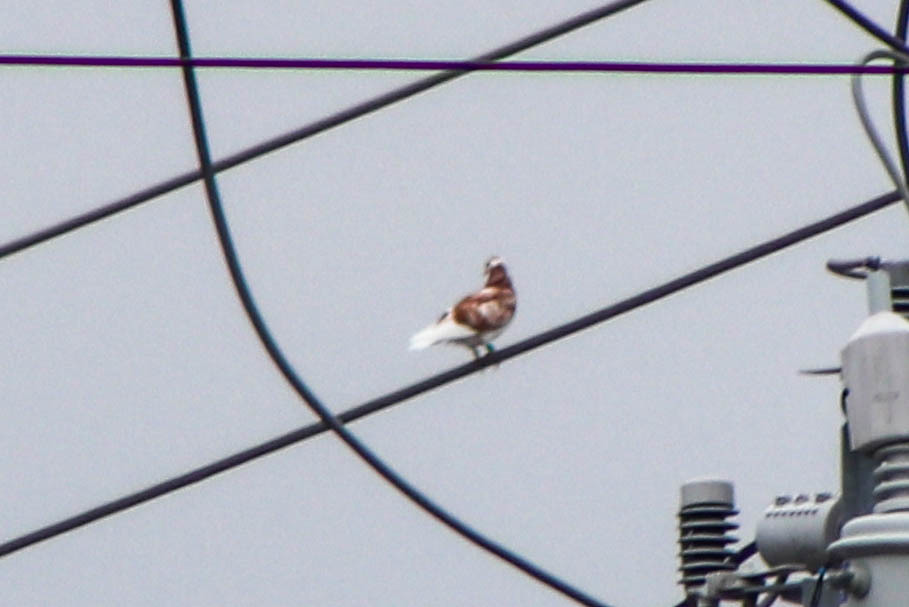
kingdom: Animalia
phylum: Chordata
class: Aves
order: Columbiformes
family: Columbidae
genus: Columba
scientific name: Columba livia
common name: Rock pigeon
